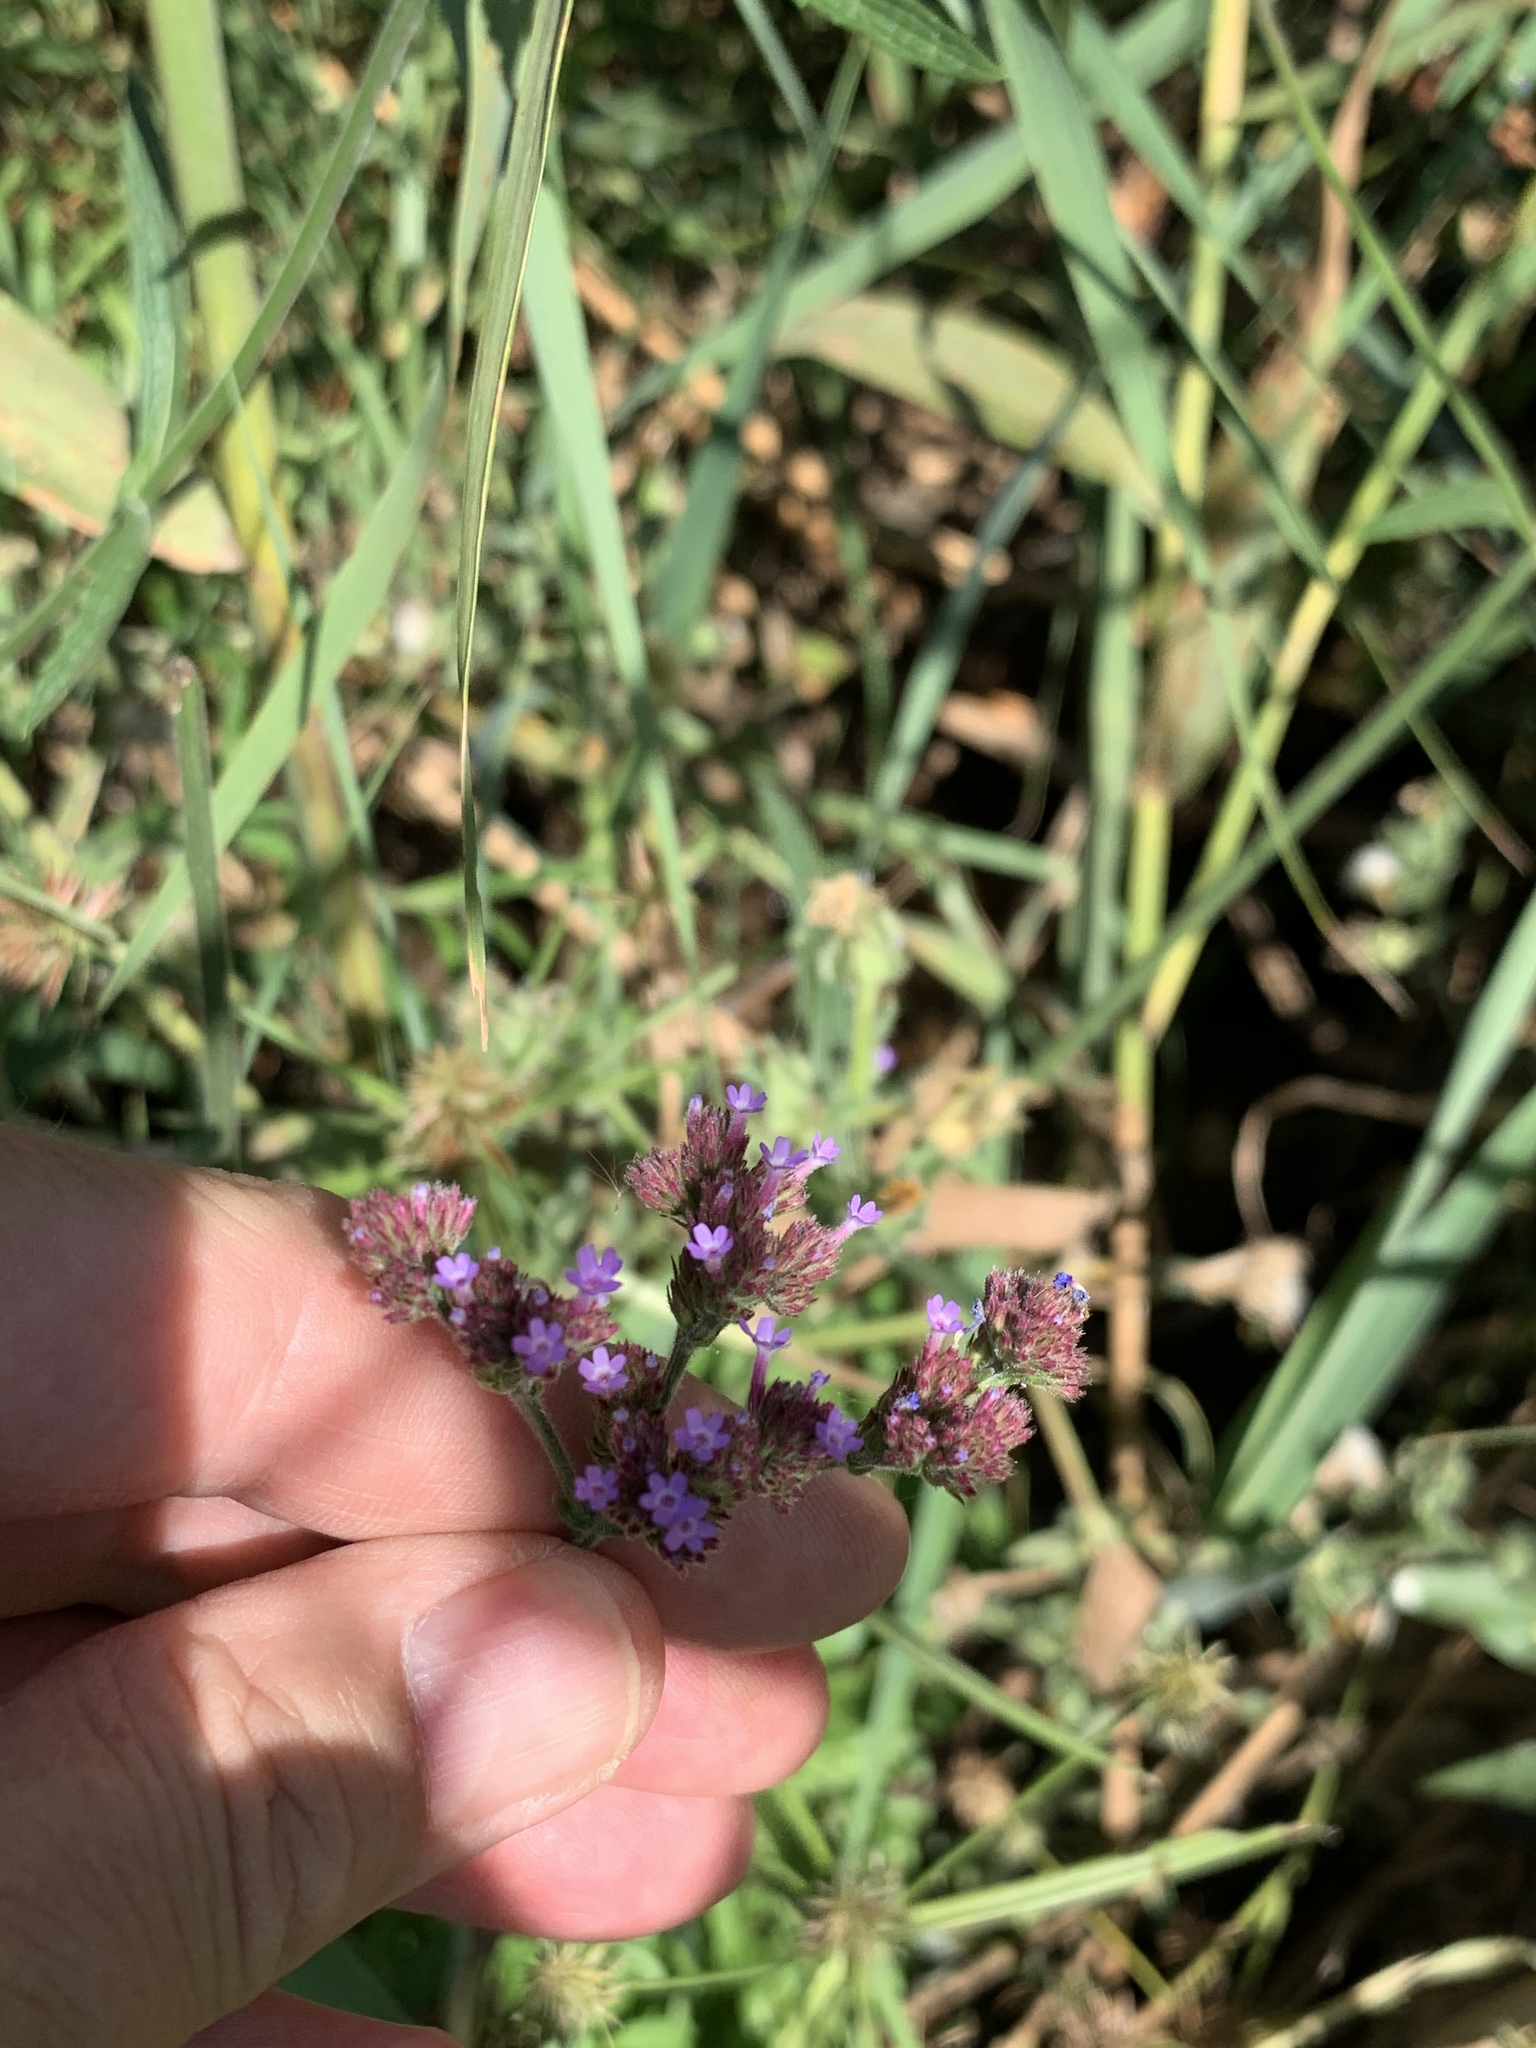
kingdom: Plantae
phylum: Tracheophyta
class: Magnoliopsida
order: Lamiales
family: Verbenaceae
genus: Verbena
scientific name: Verbena bonariensis
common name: Purpletop vervain
